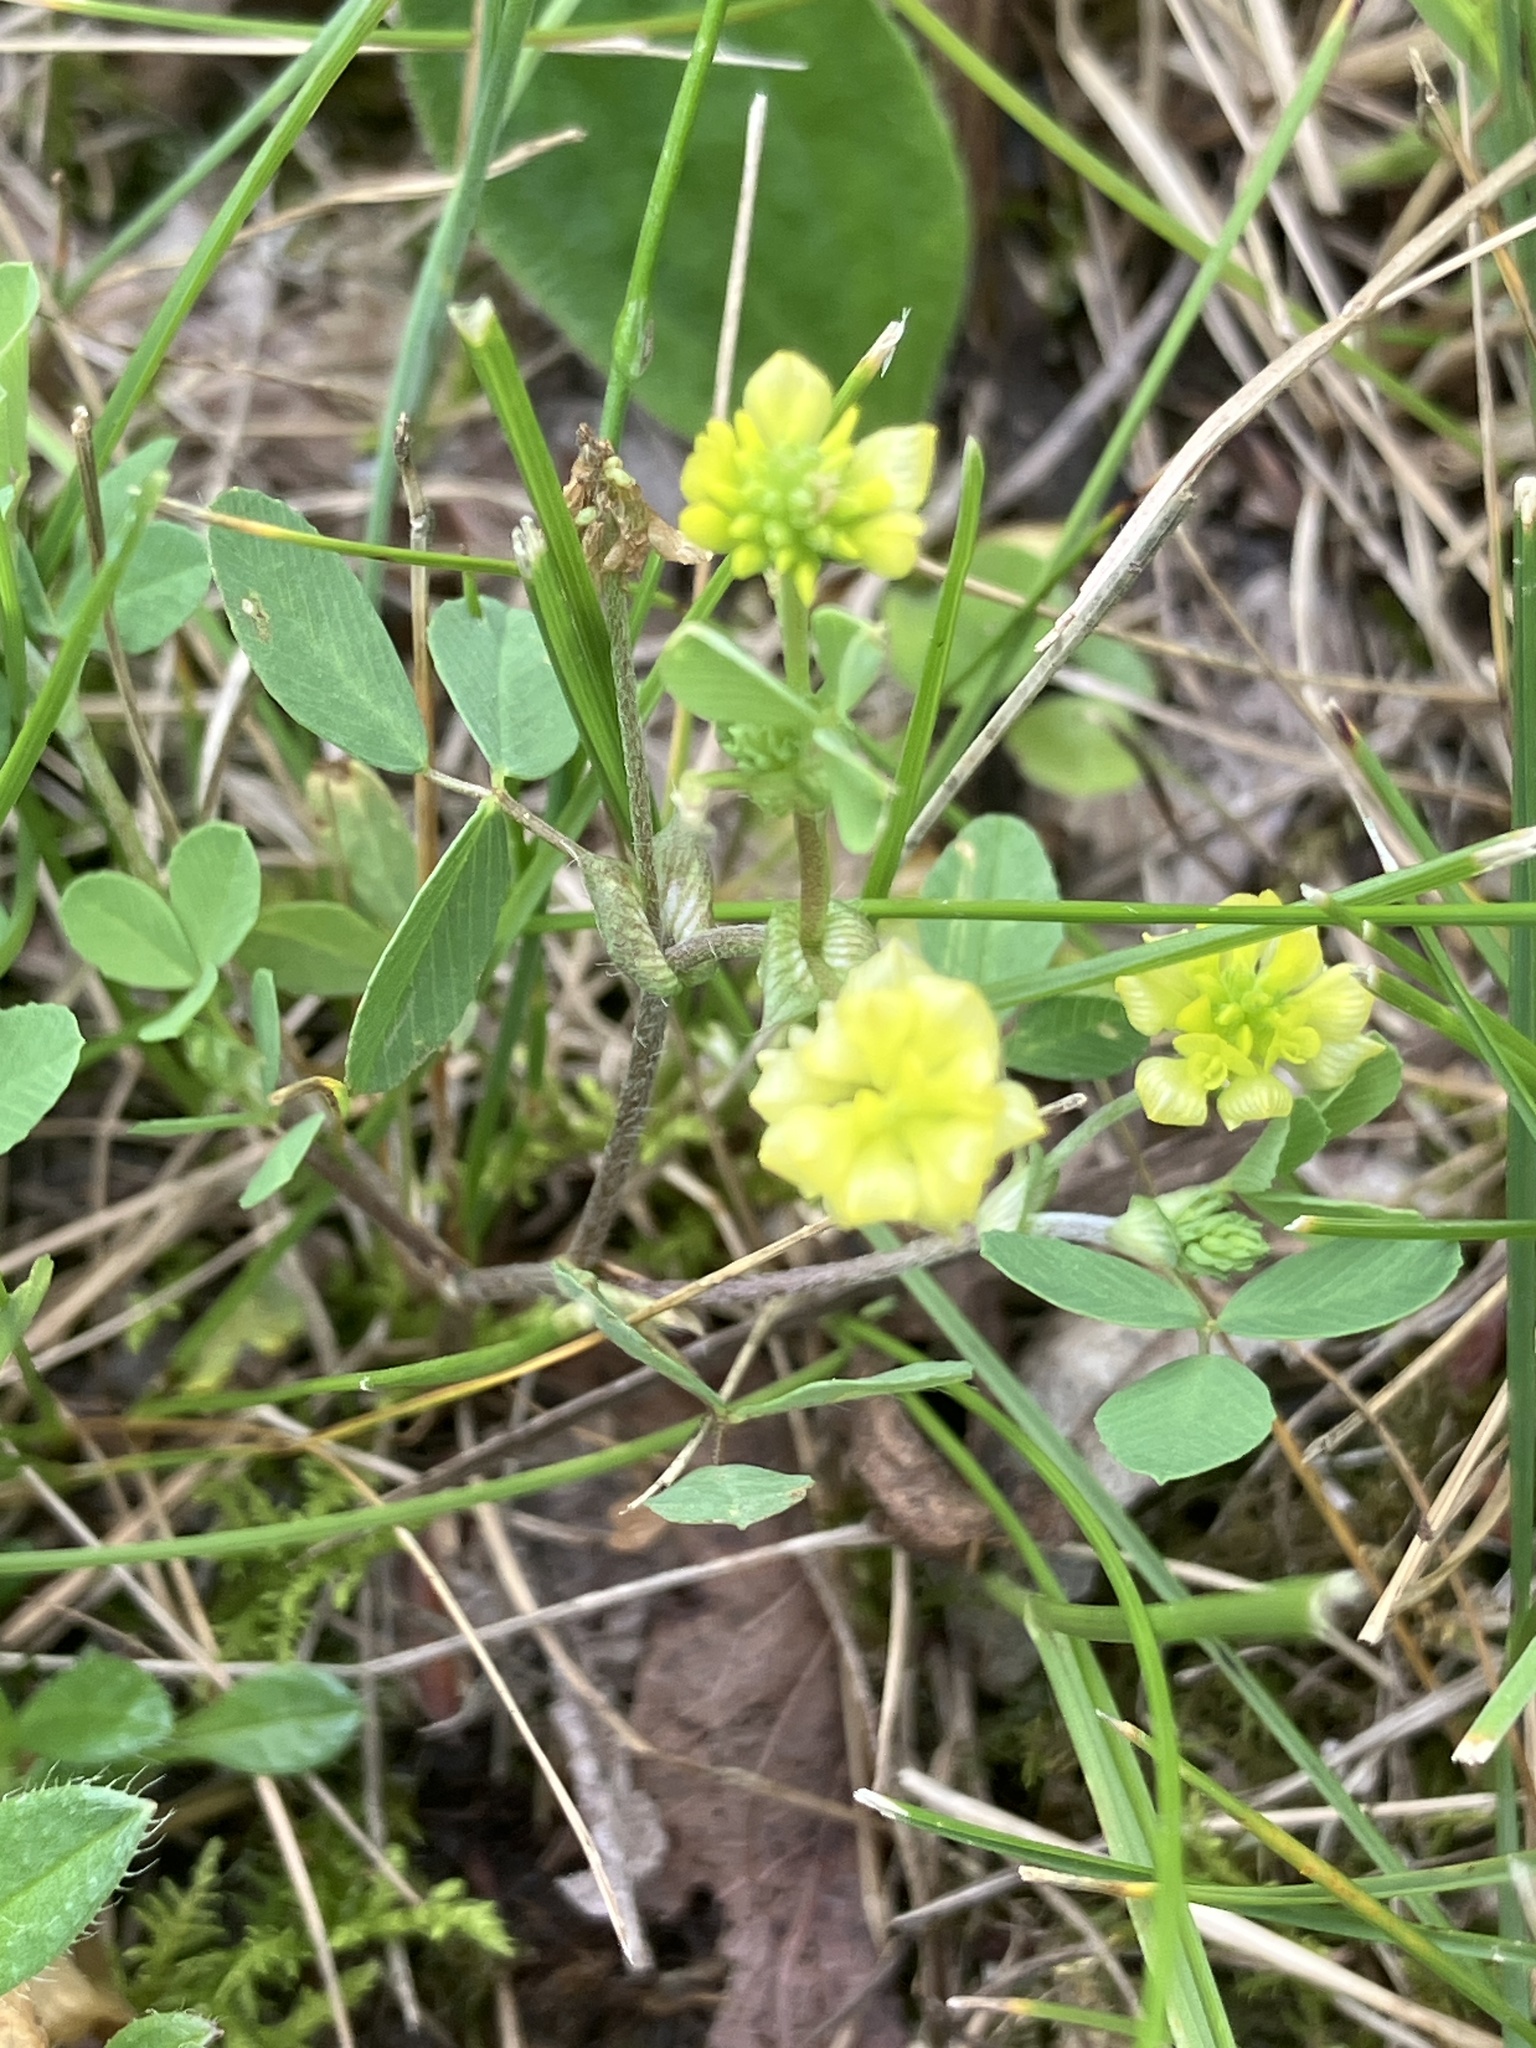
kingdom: Plantae
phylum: Tracheophyta
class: Magnoliopsida
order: Fabales
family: Fabaceae
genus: Trifolium
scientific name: Trifolium campestre
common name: Field clover
